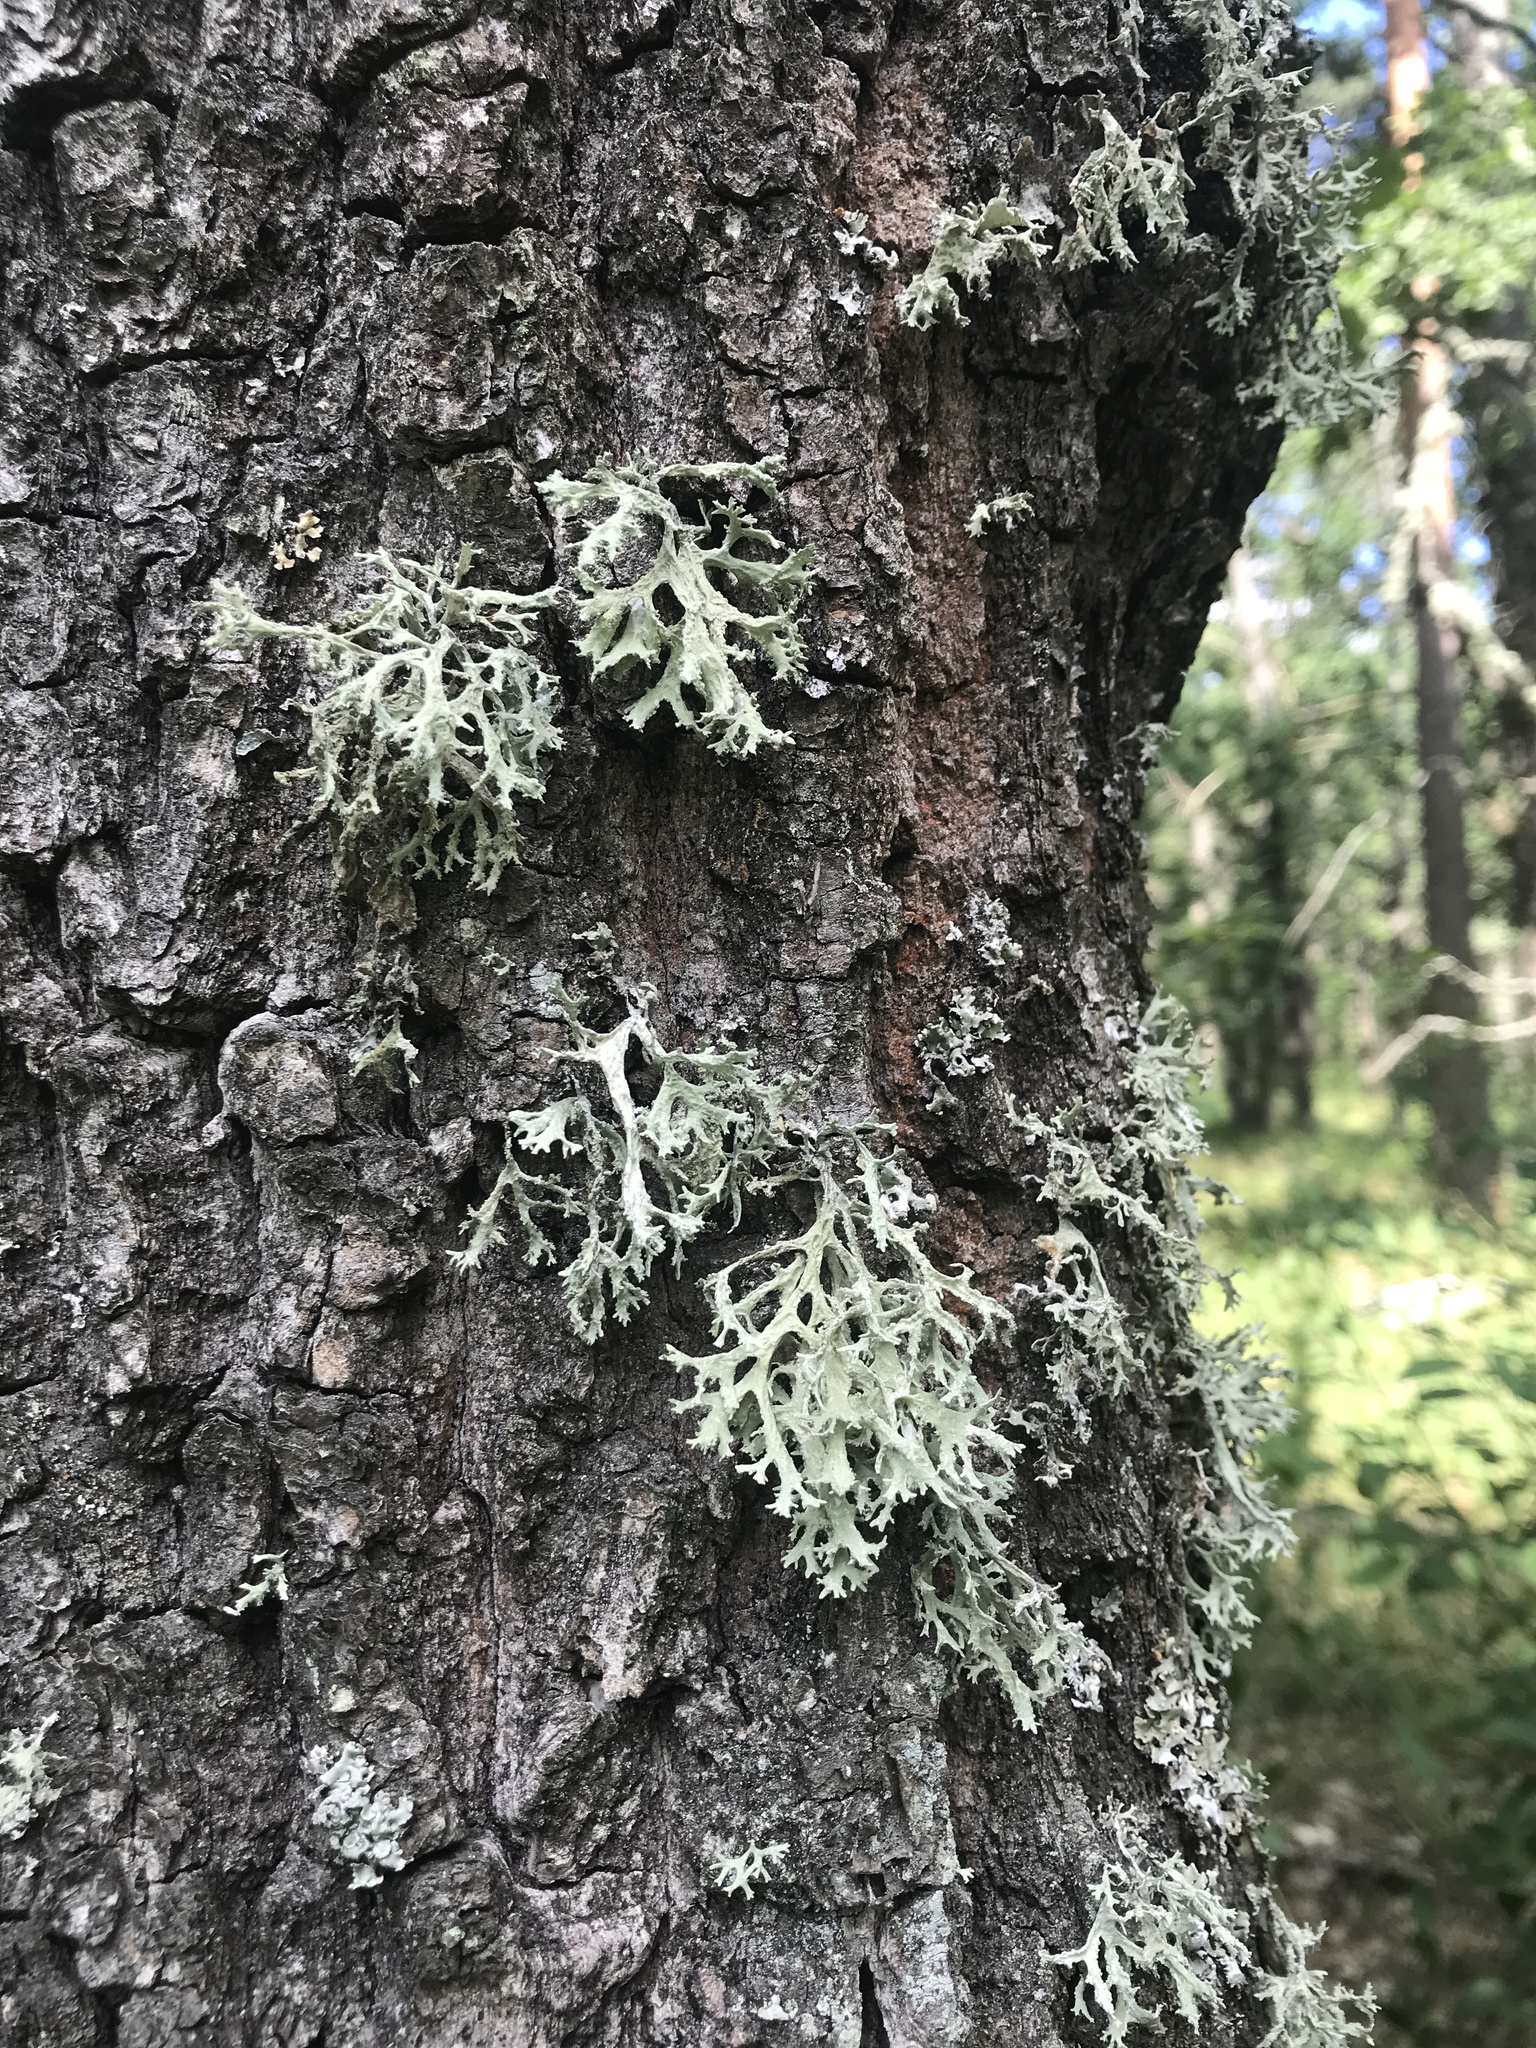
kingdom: Fungi
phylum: Ascomycota
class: Lecanoromycetes
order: Lecanorales
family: Parmeliaceae
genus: Evernia
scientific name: Evernia prunastri
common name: Oak moss
